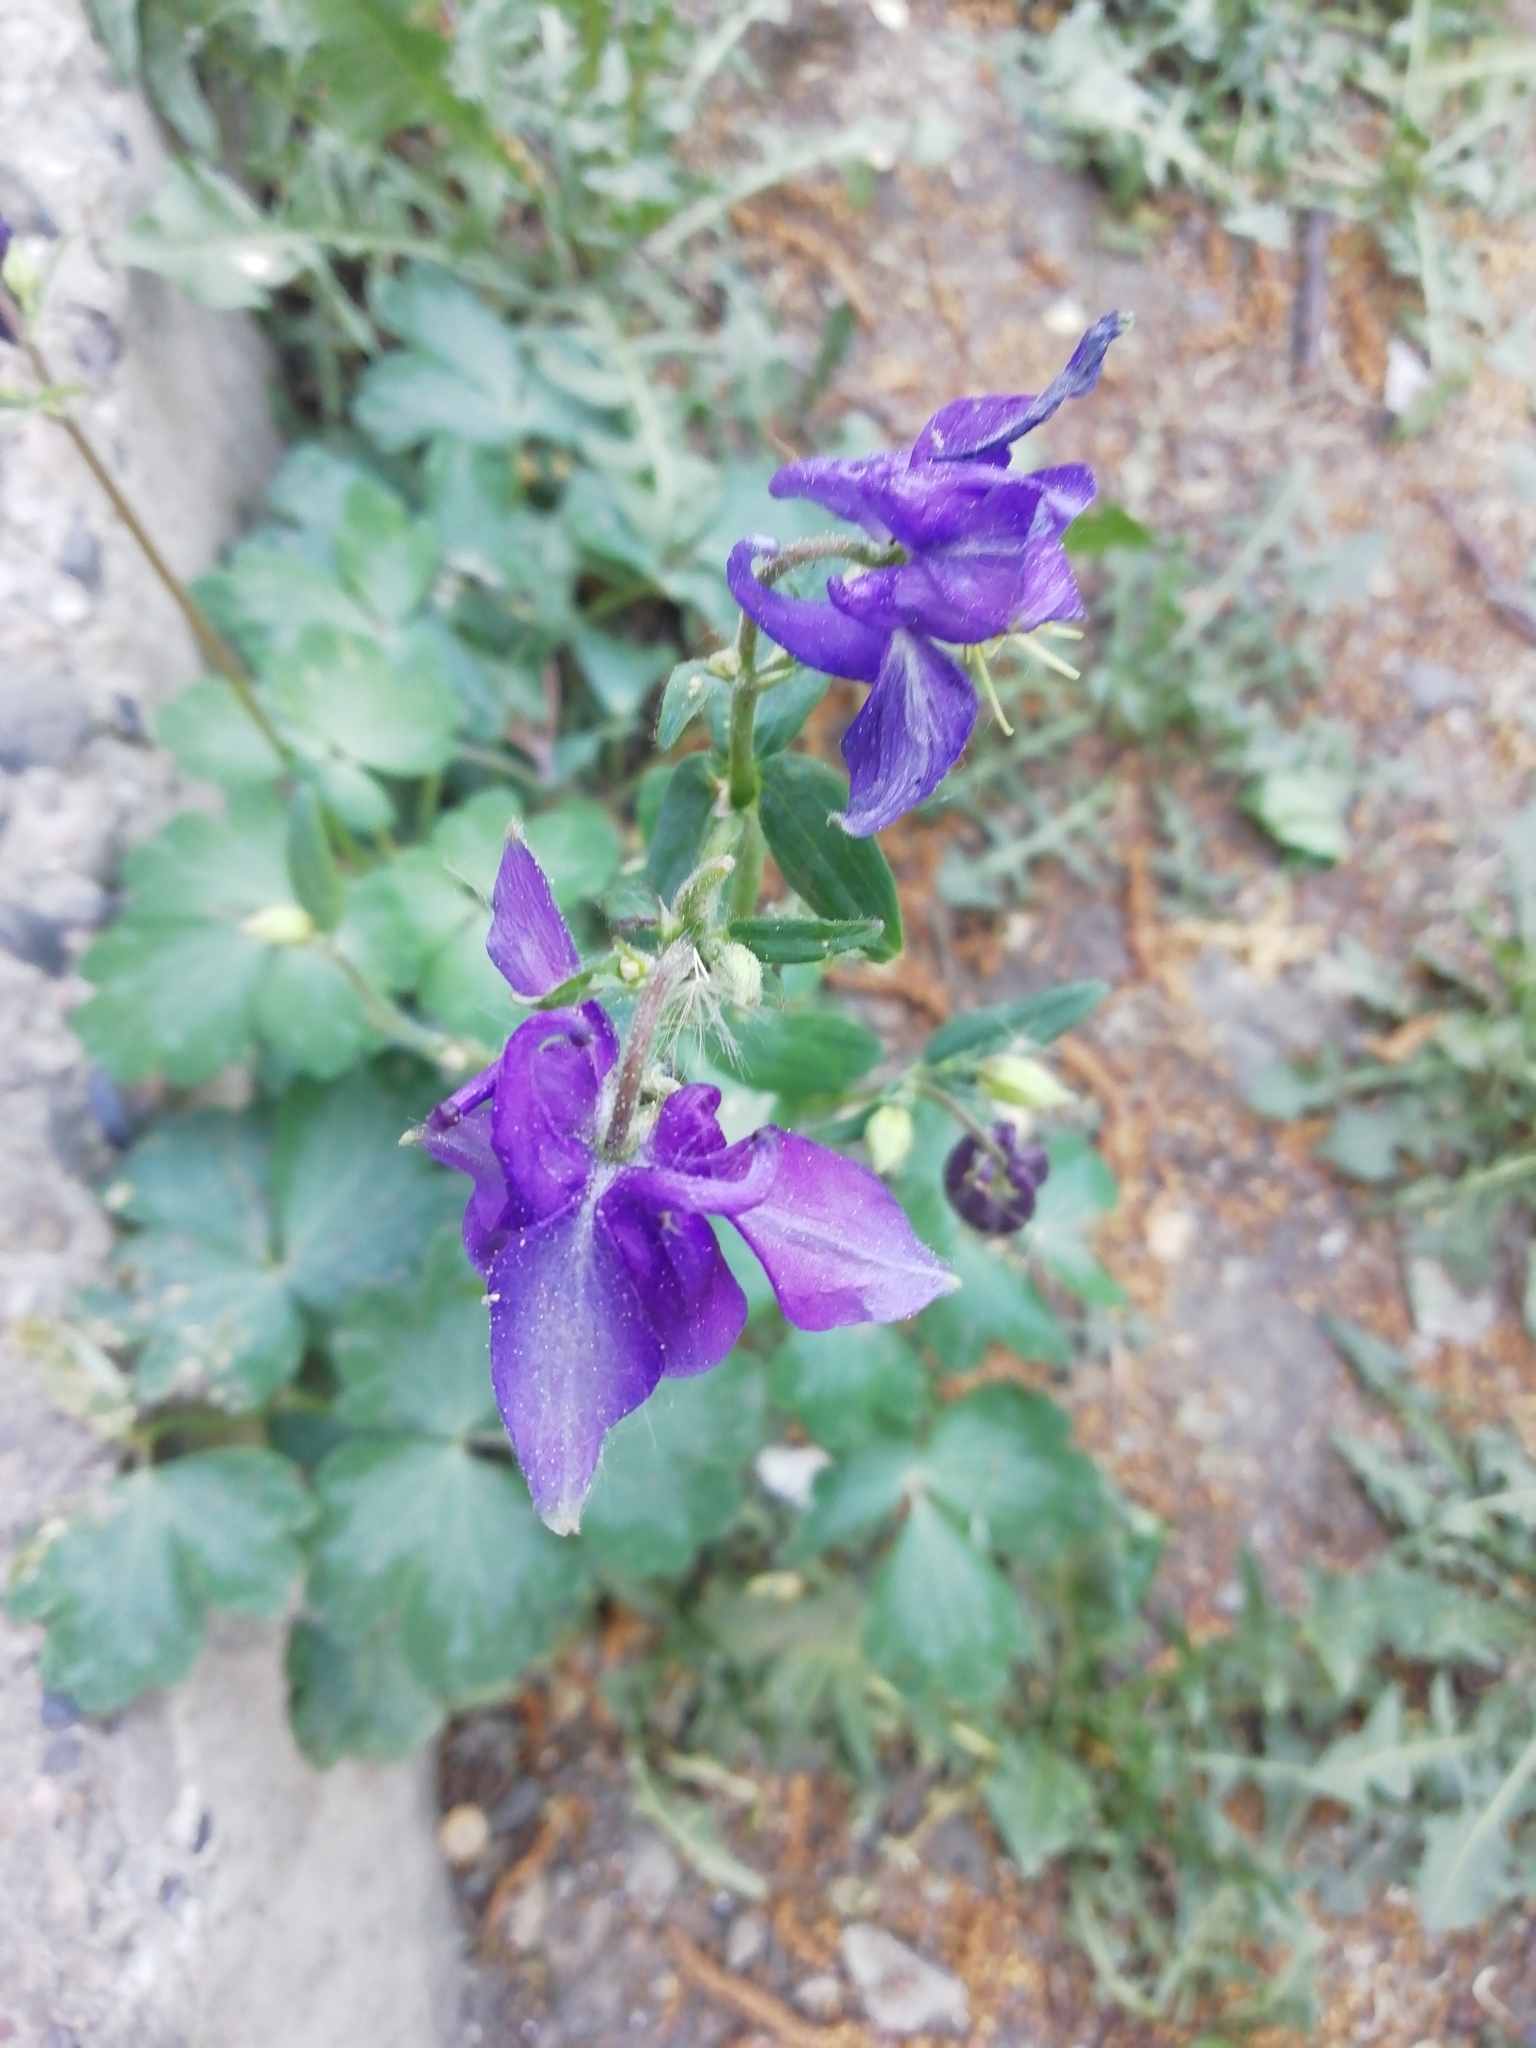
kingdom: Plantae
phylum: Tracheophyta
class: Magnoliopsida
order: Ranunculales
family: Ranunculaceae
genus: Aquilegia
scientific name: Aquilegia vulgaris
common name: Columbine
